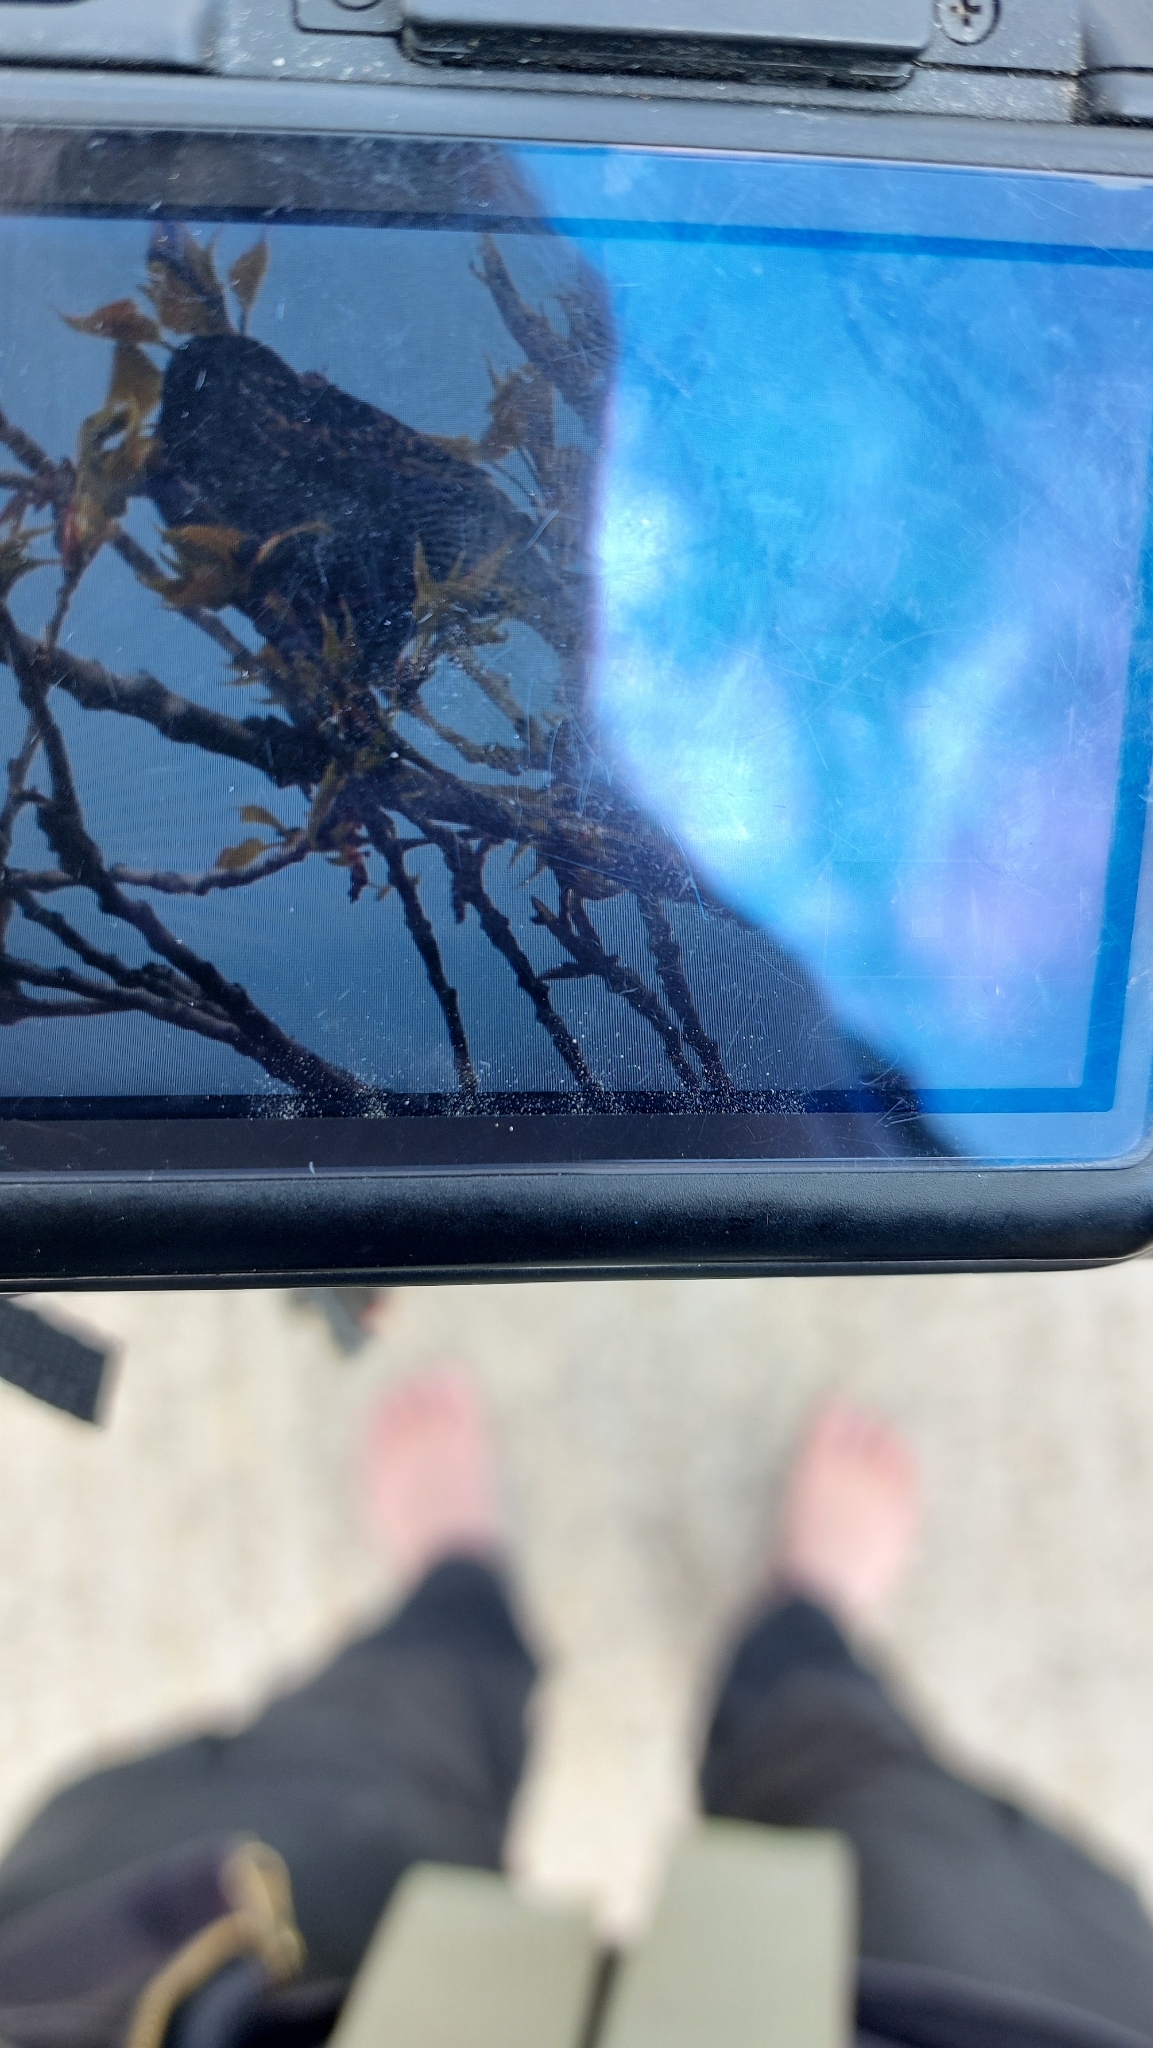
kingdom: Animalia
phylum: Chordata
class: Aves
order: Passeriformes
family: Sturnidae
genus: Sturnus
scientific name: Sturnus vulgaris
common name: Common starling
